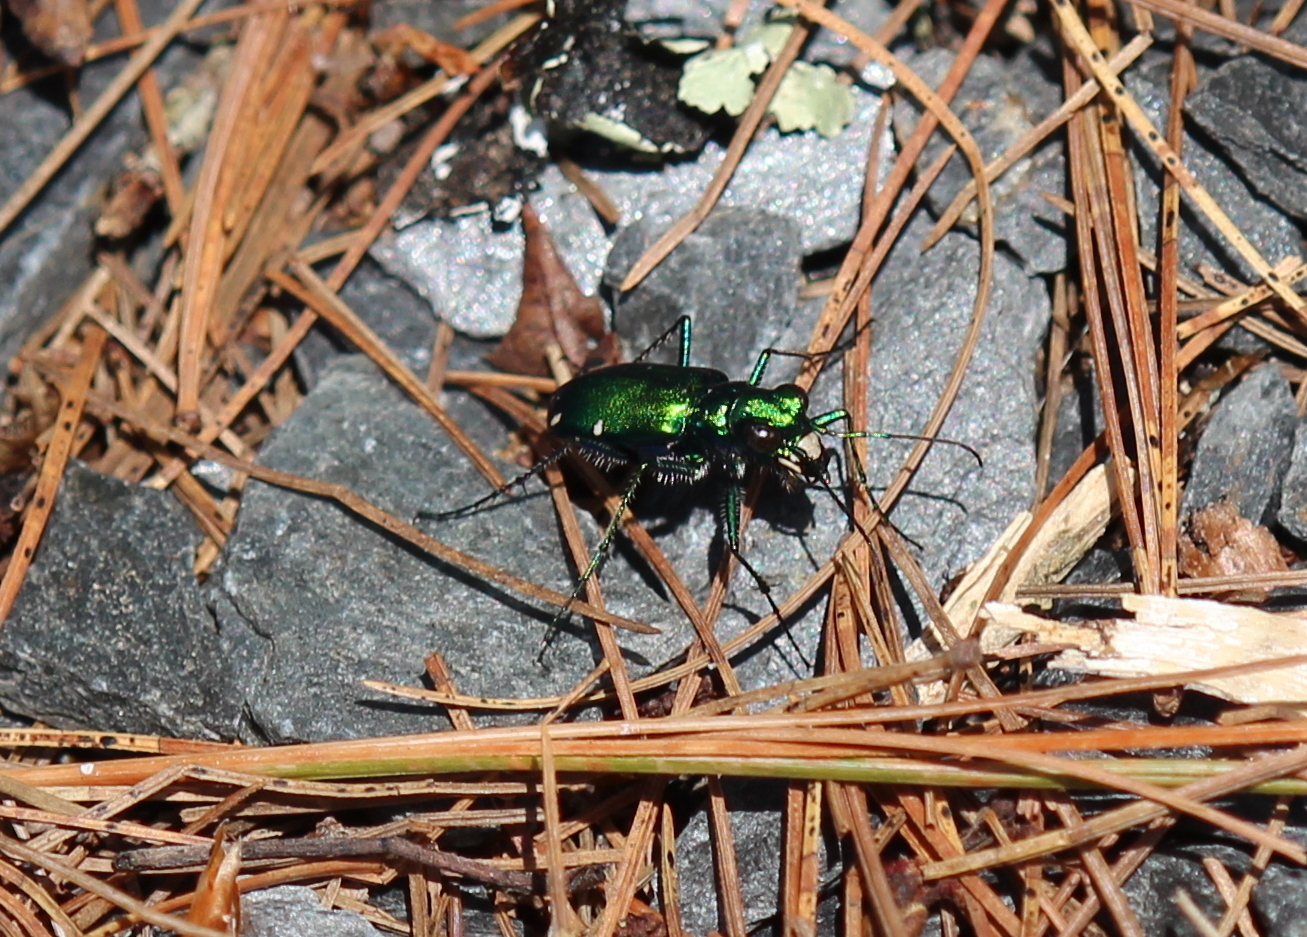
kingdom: Animalia
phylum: Arthropoda
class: Insecta
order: Coleoptera
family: Carabidae
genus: Cicindela
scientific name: Cicindela sexguttata
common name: Six-spotted tiger beetle
